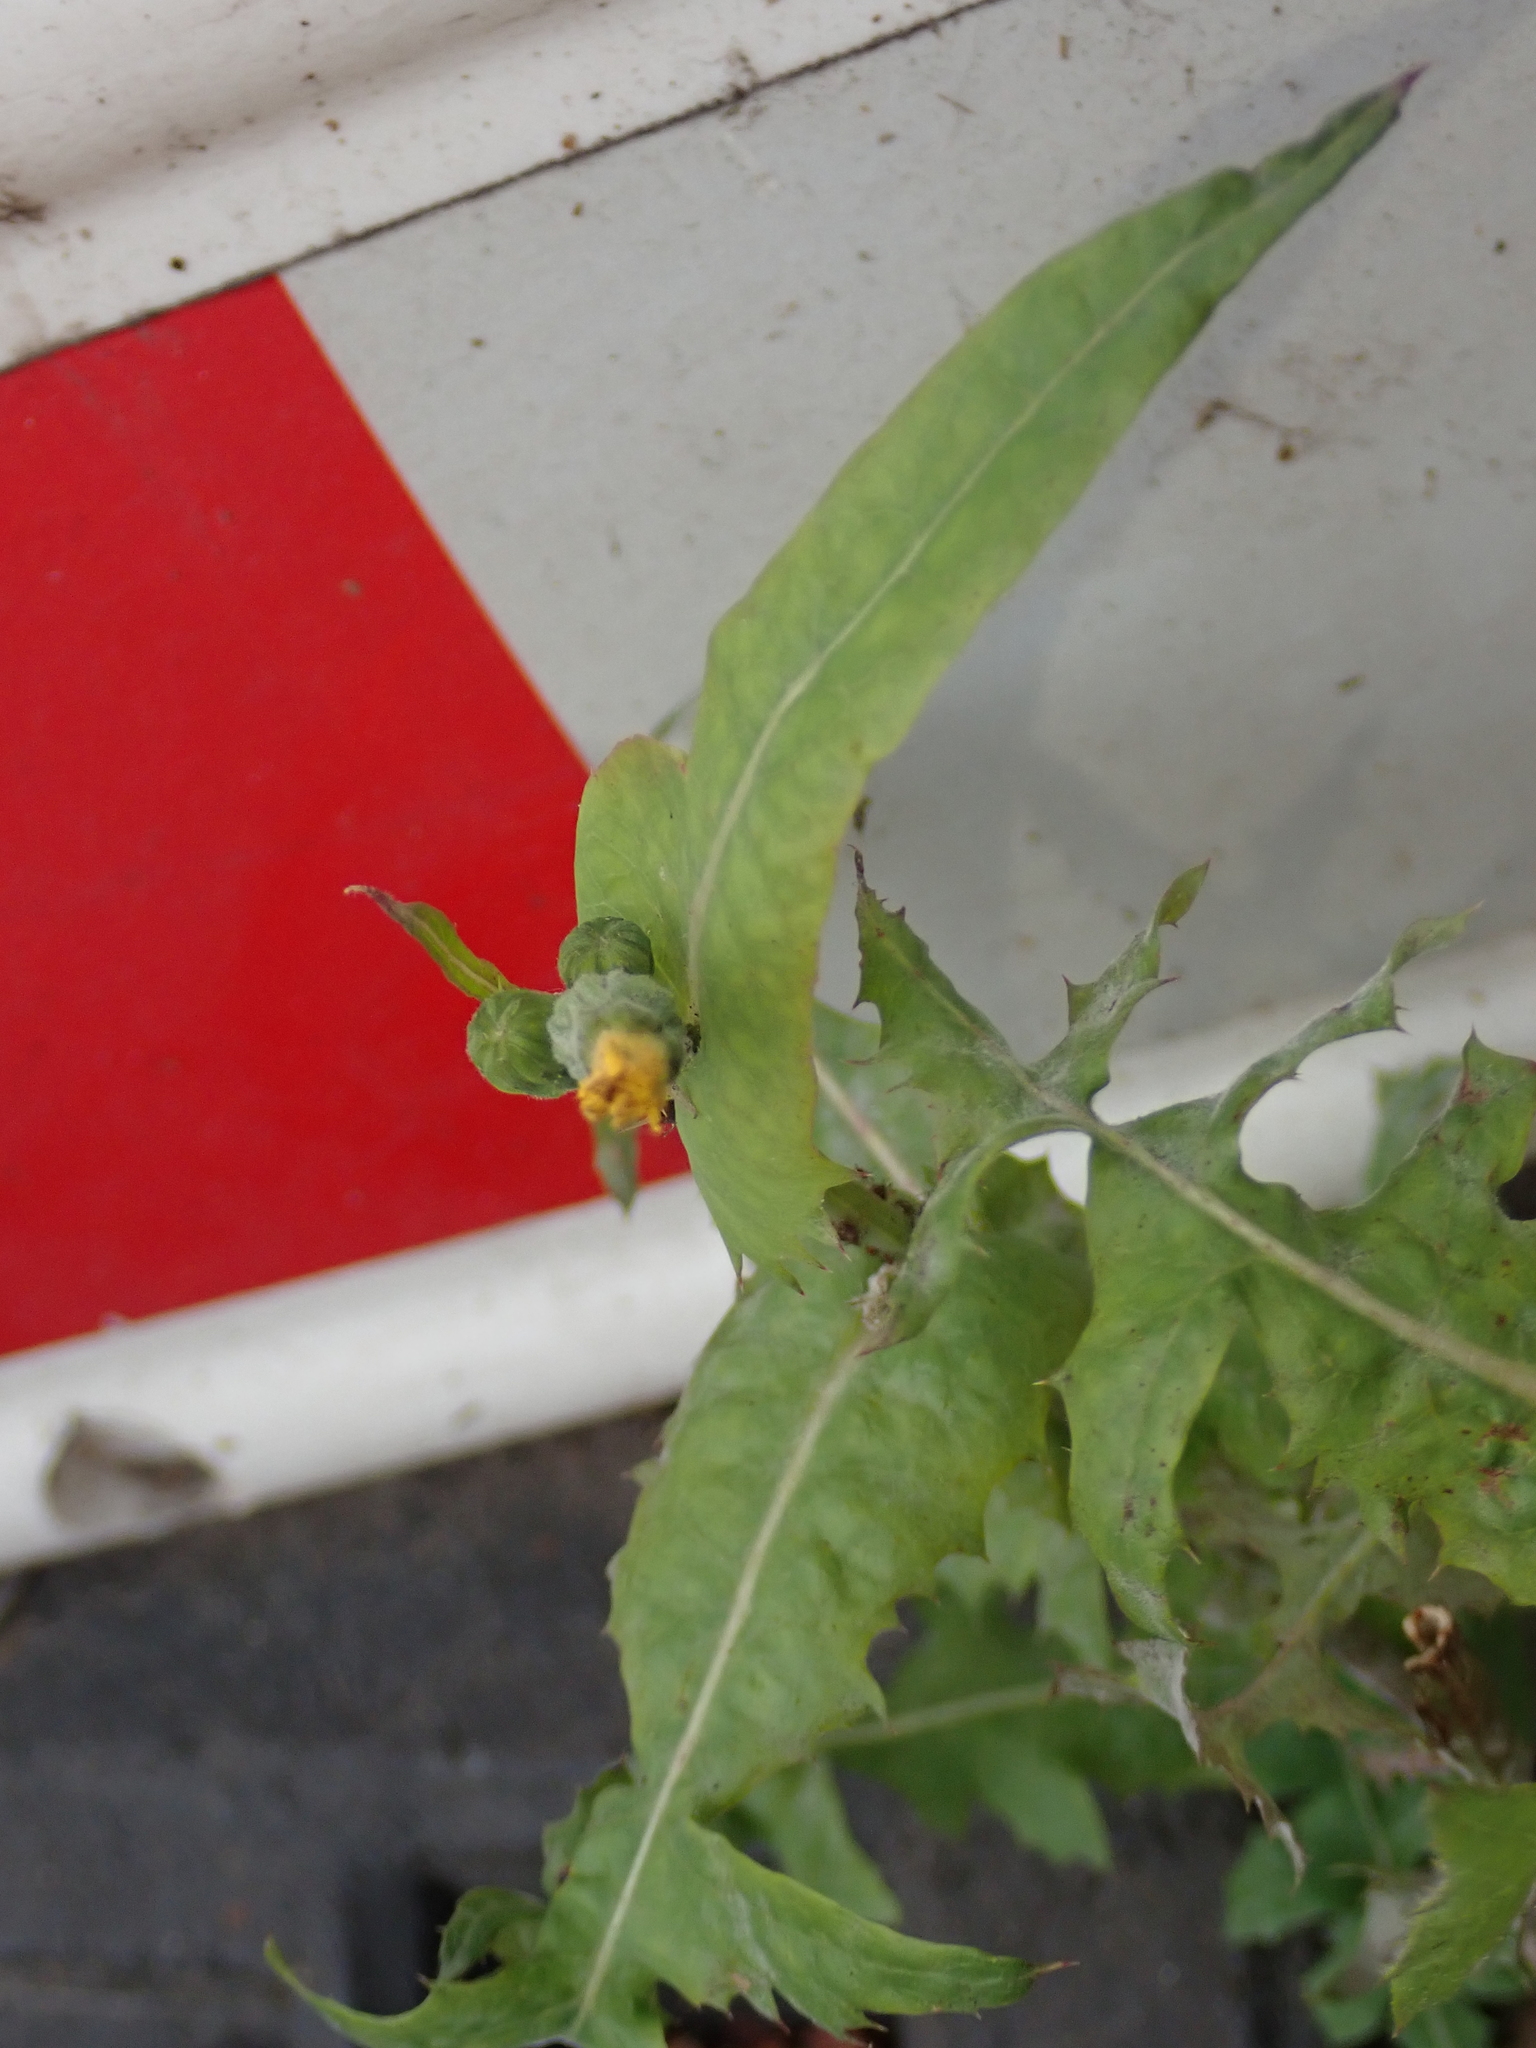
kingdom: Plantae
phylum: Tracheophyta
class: Magnoliopsida
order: Asterales
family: Asteraceae
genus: Sonchus
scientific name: Sonchus oleraceus
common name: Common sowthistle
